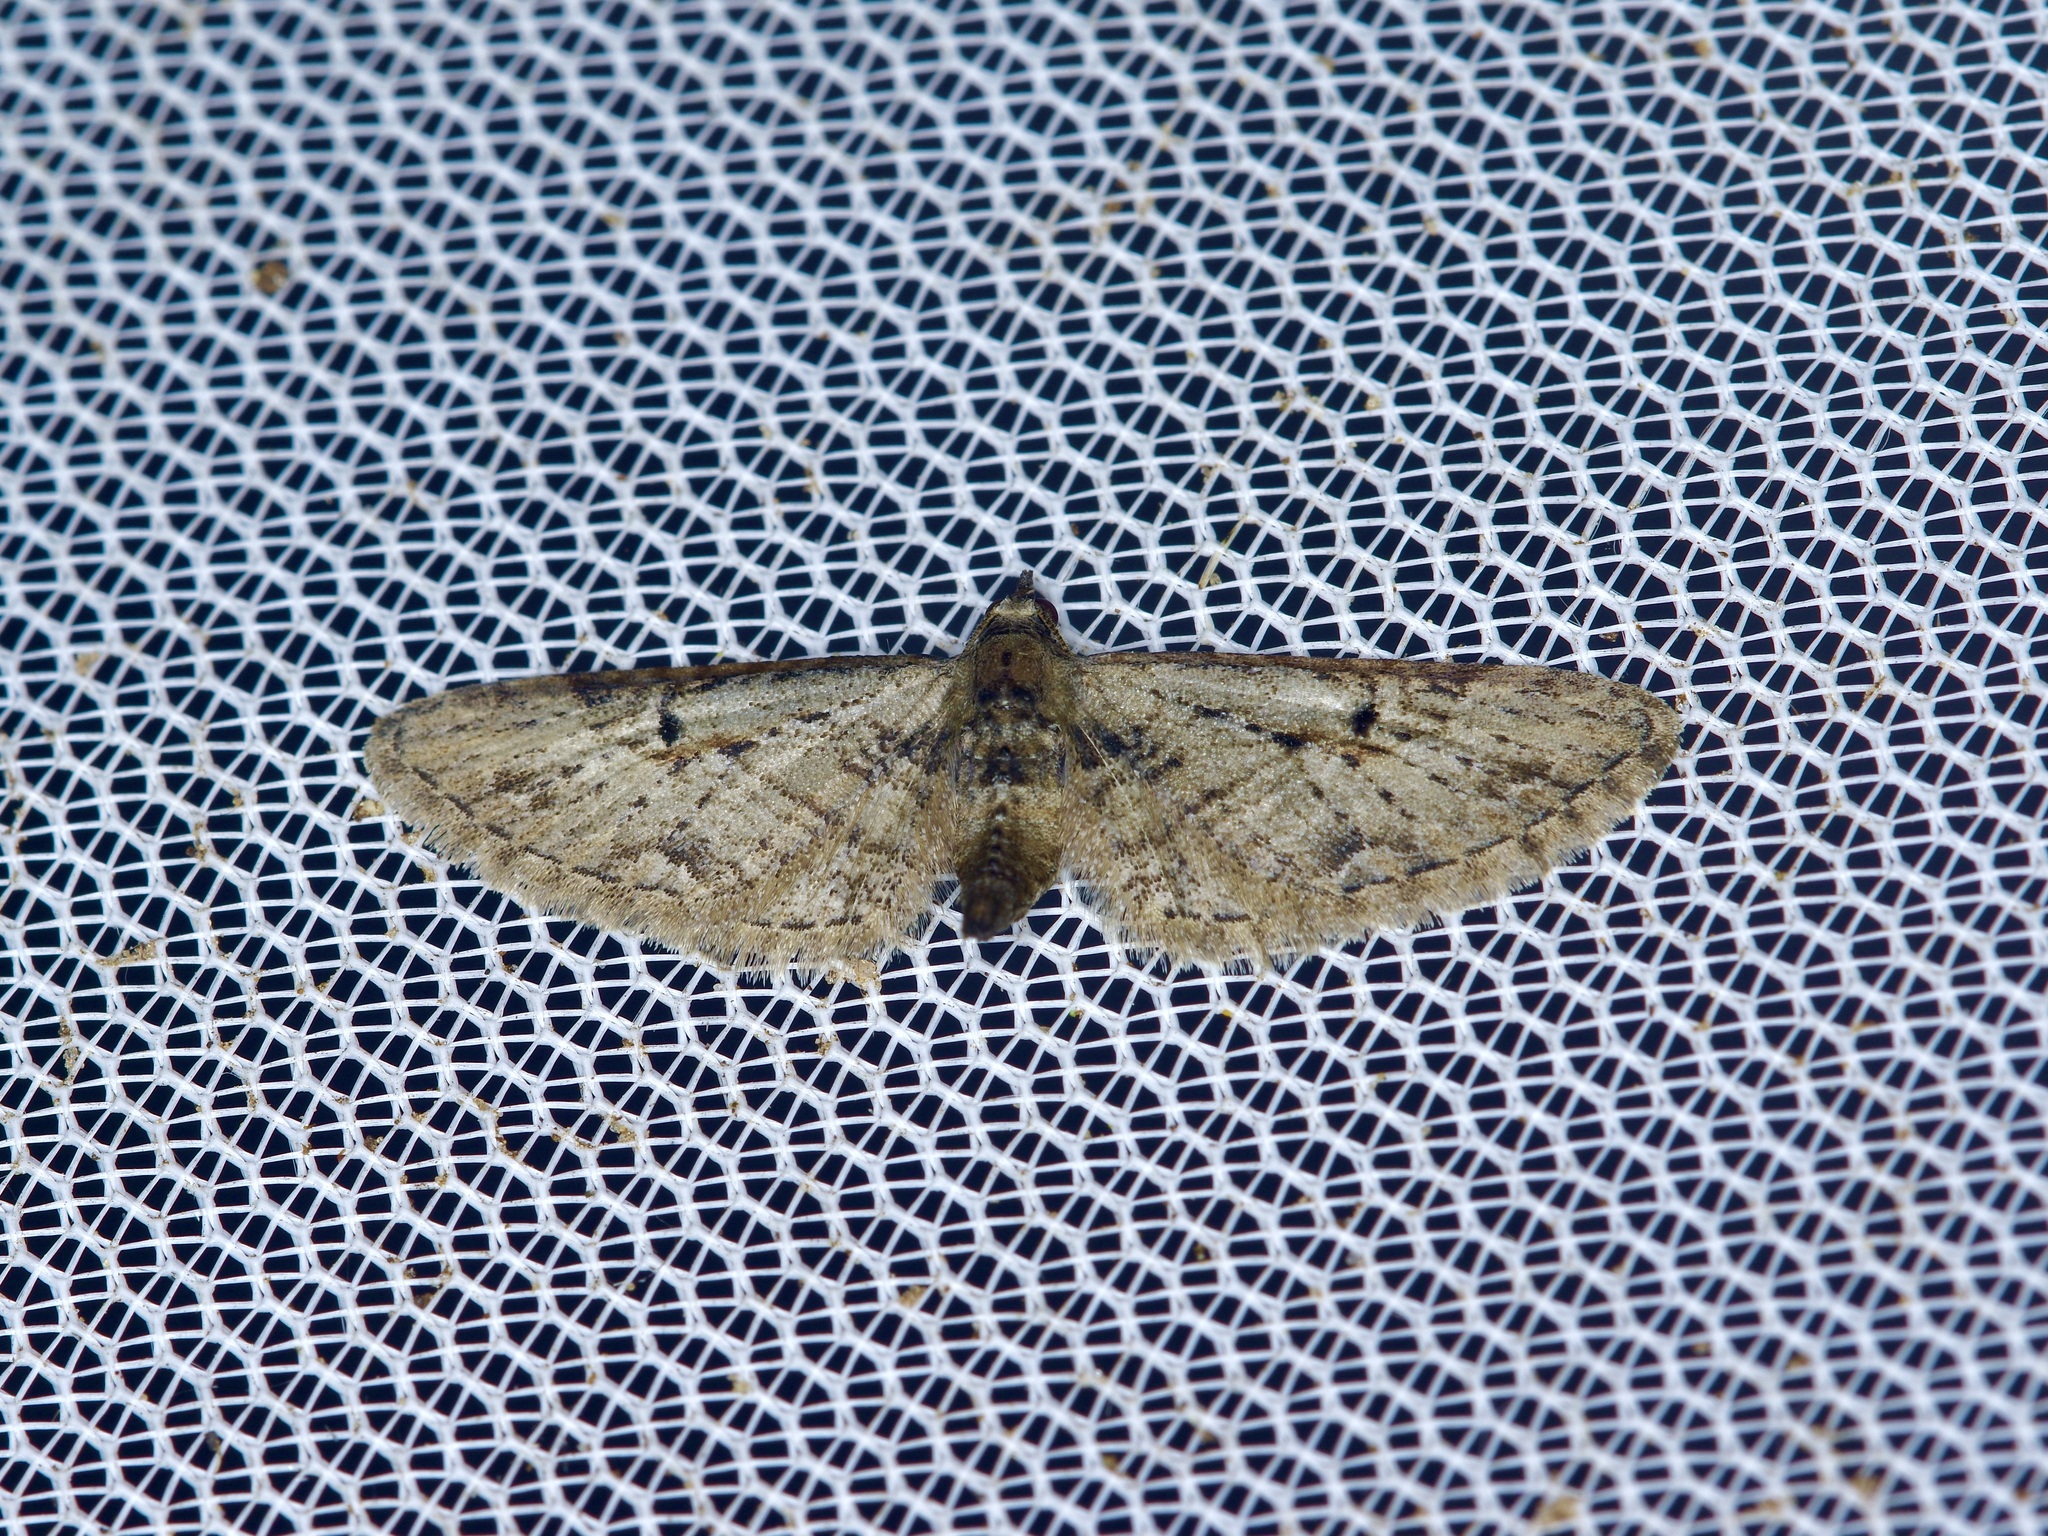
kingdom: Animalia
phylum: Arthropoda
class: Insecta
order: Lepidoptera
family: Geometridae
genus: Eupithecia
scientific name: Eupithecia miserulata
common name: Common eupithecia
